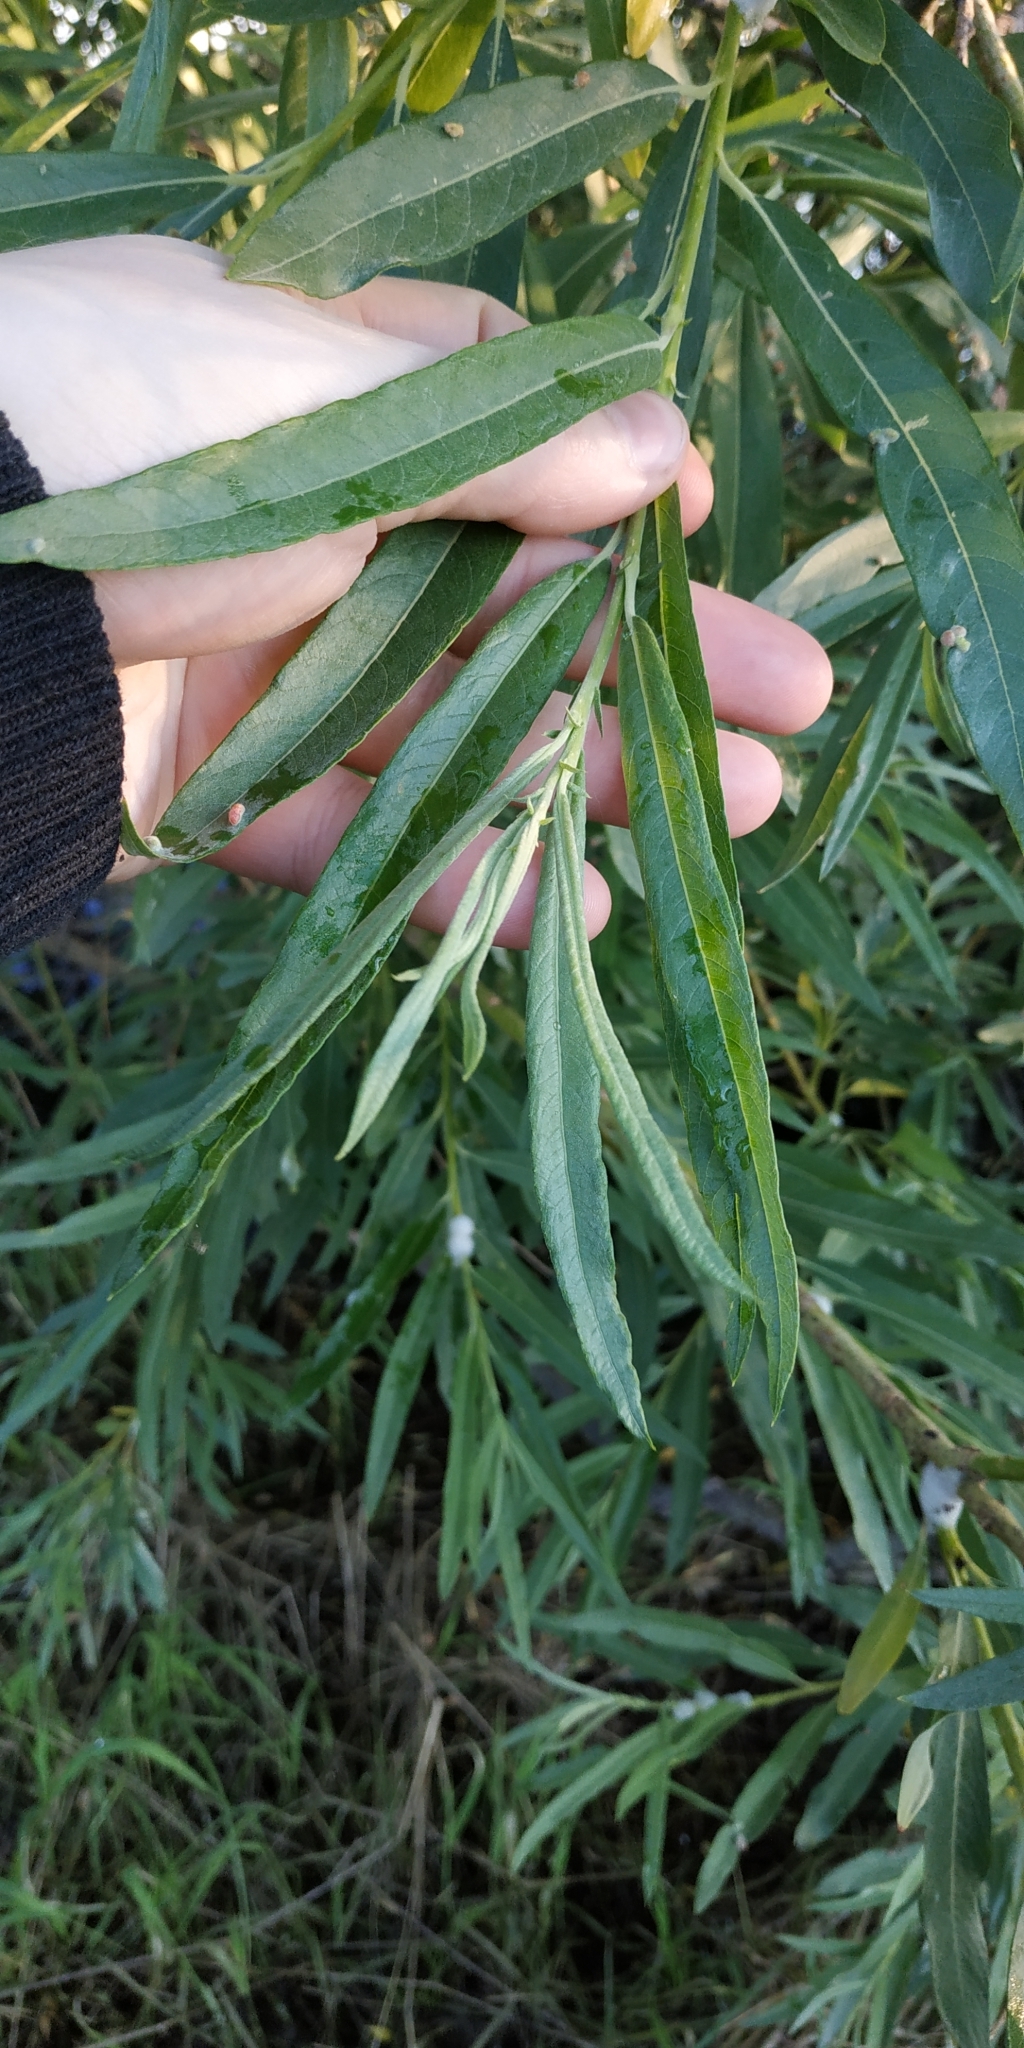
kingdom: Plantae
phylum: Tracheophyta
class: Magnoliopsida
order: Malpighiales
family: Salicaceae
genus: Salix
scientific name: Salix viminalis
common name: Osier
